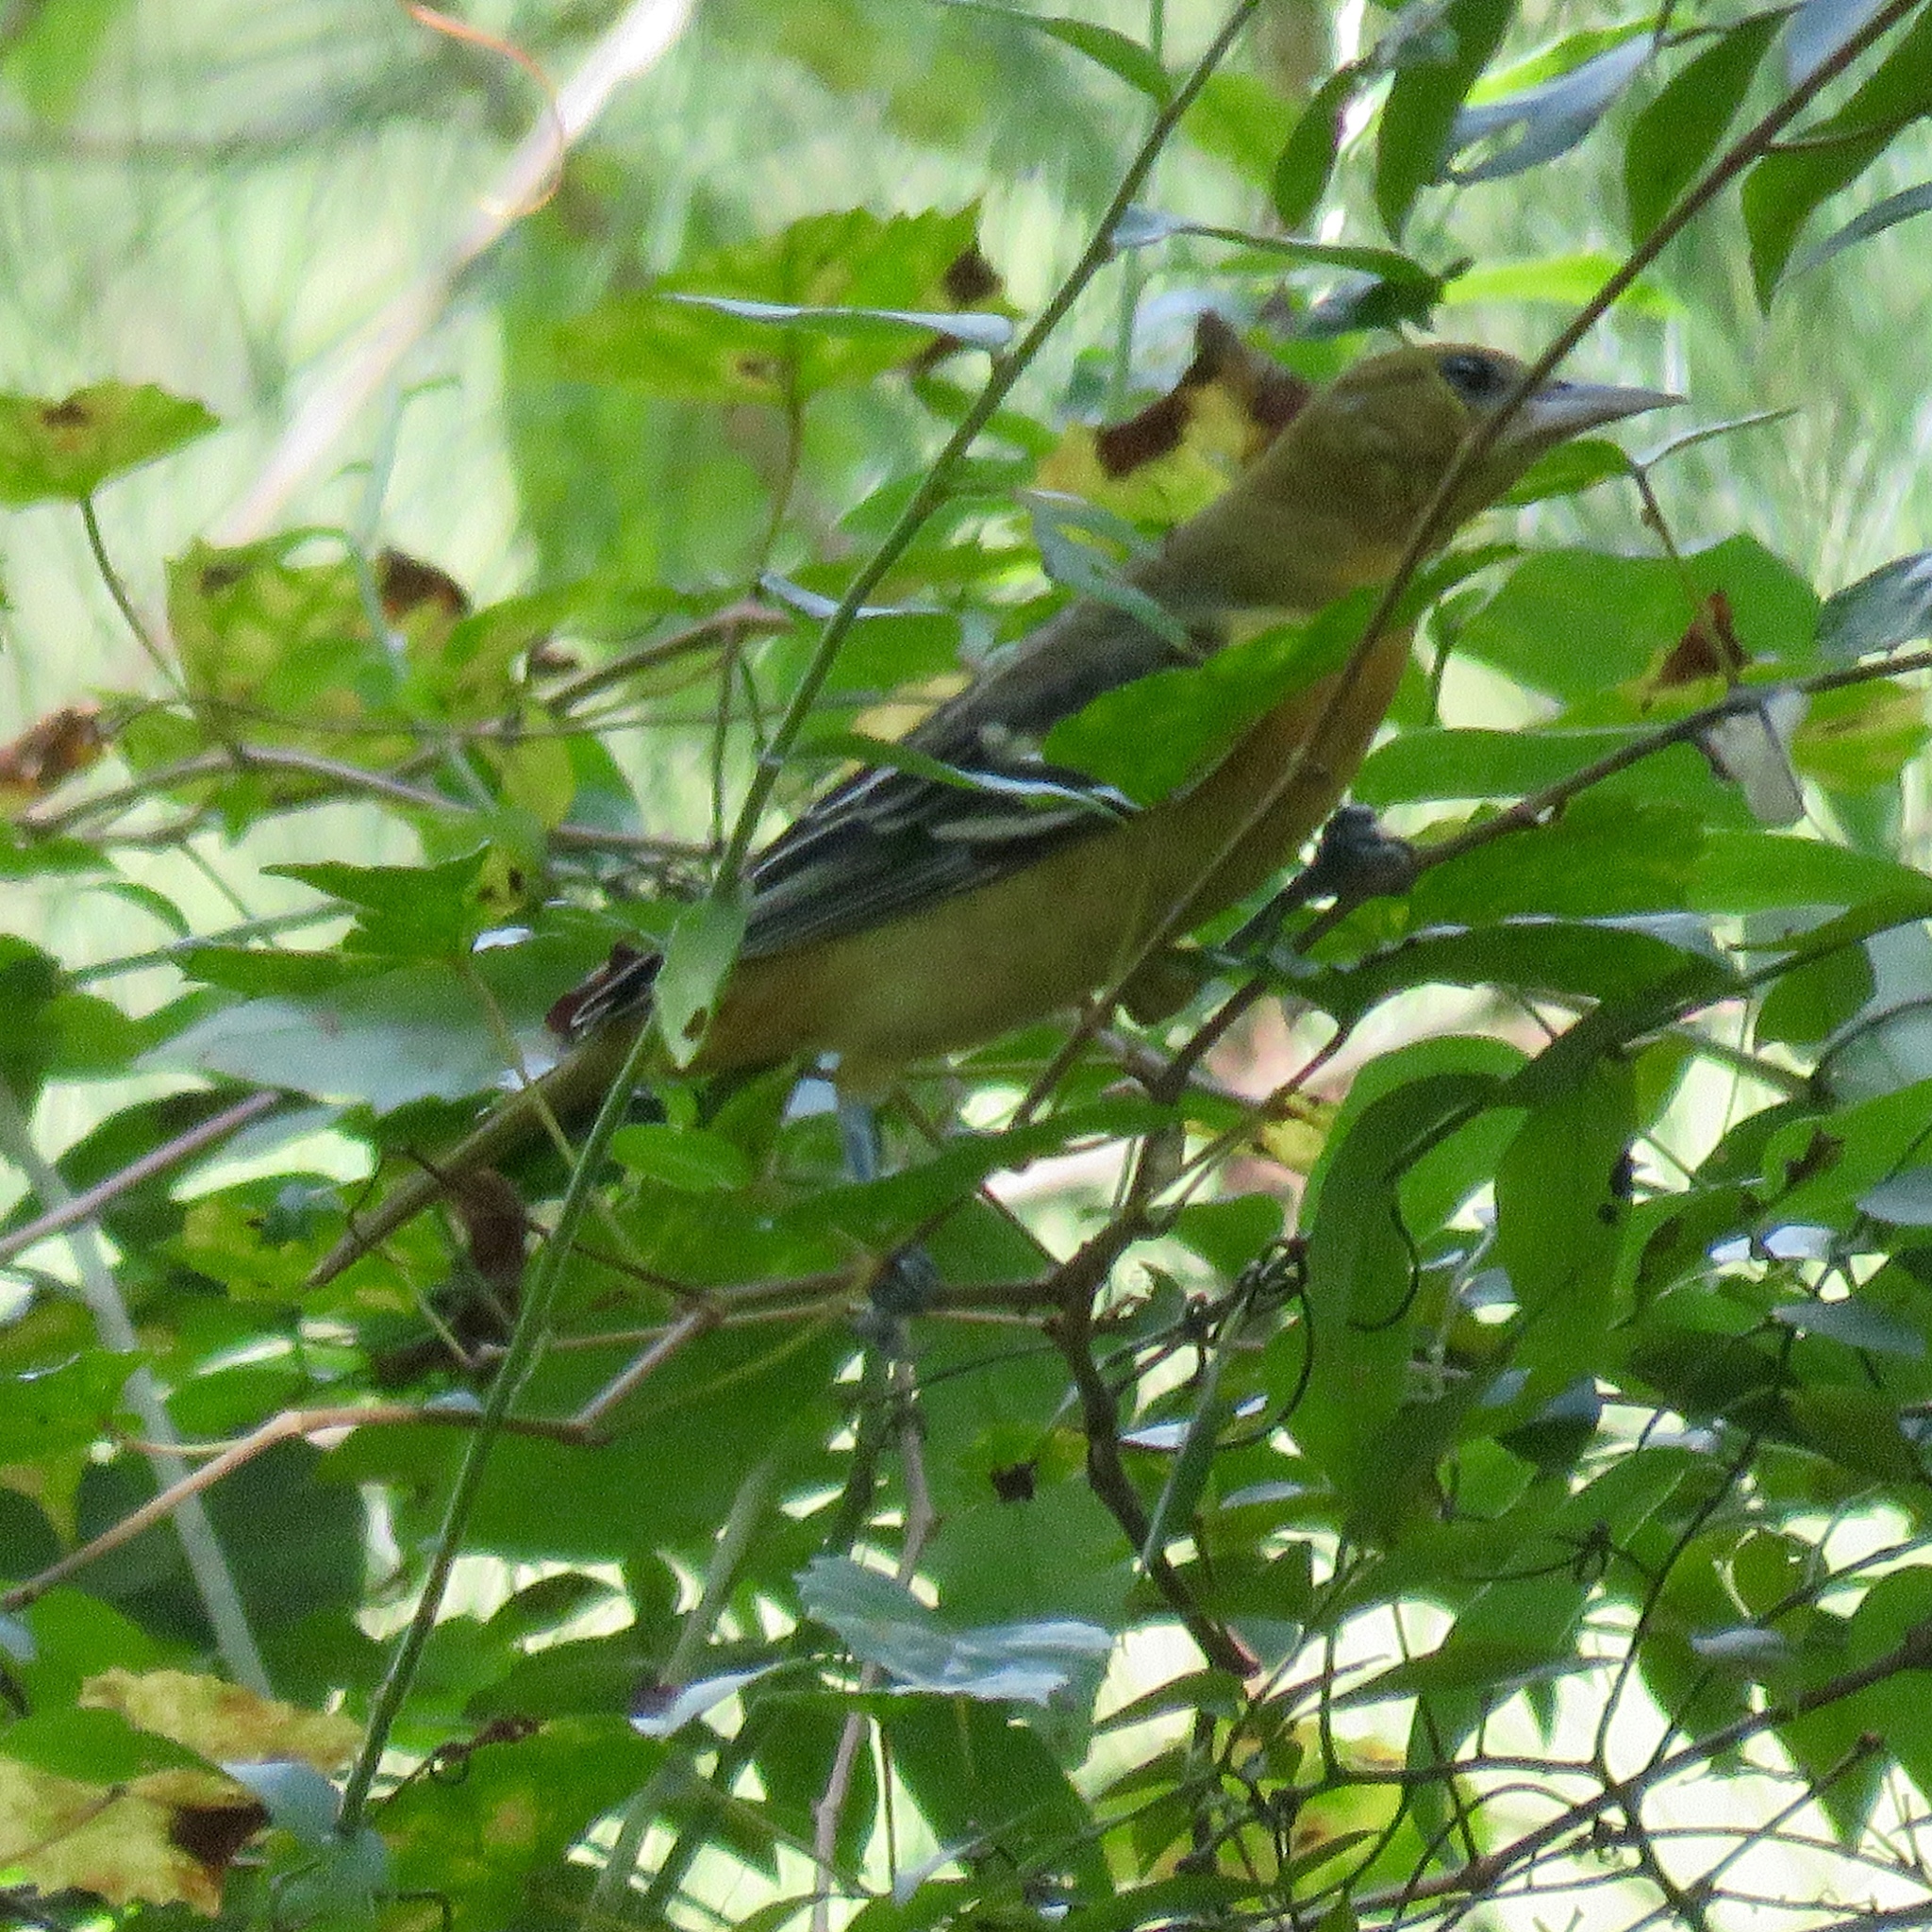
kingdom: Animalia
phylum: Chordata
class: Aves
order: Passeriformes
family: Icteridae
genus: Icterus
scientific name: Icterus spurius
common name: Orchard oriole
